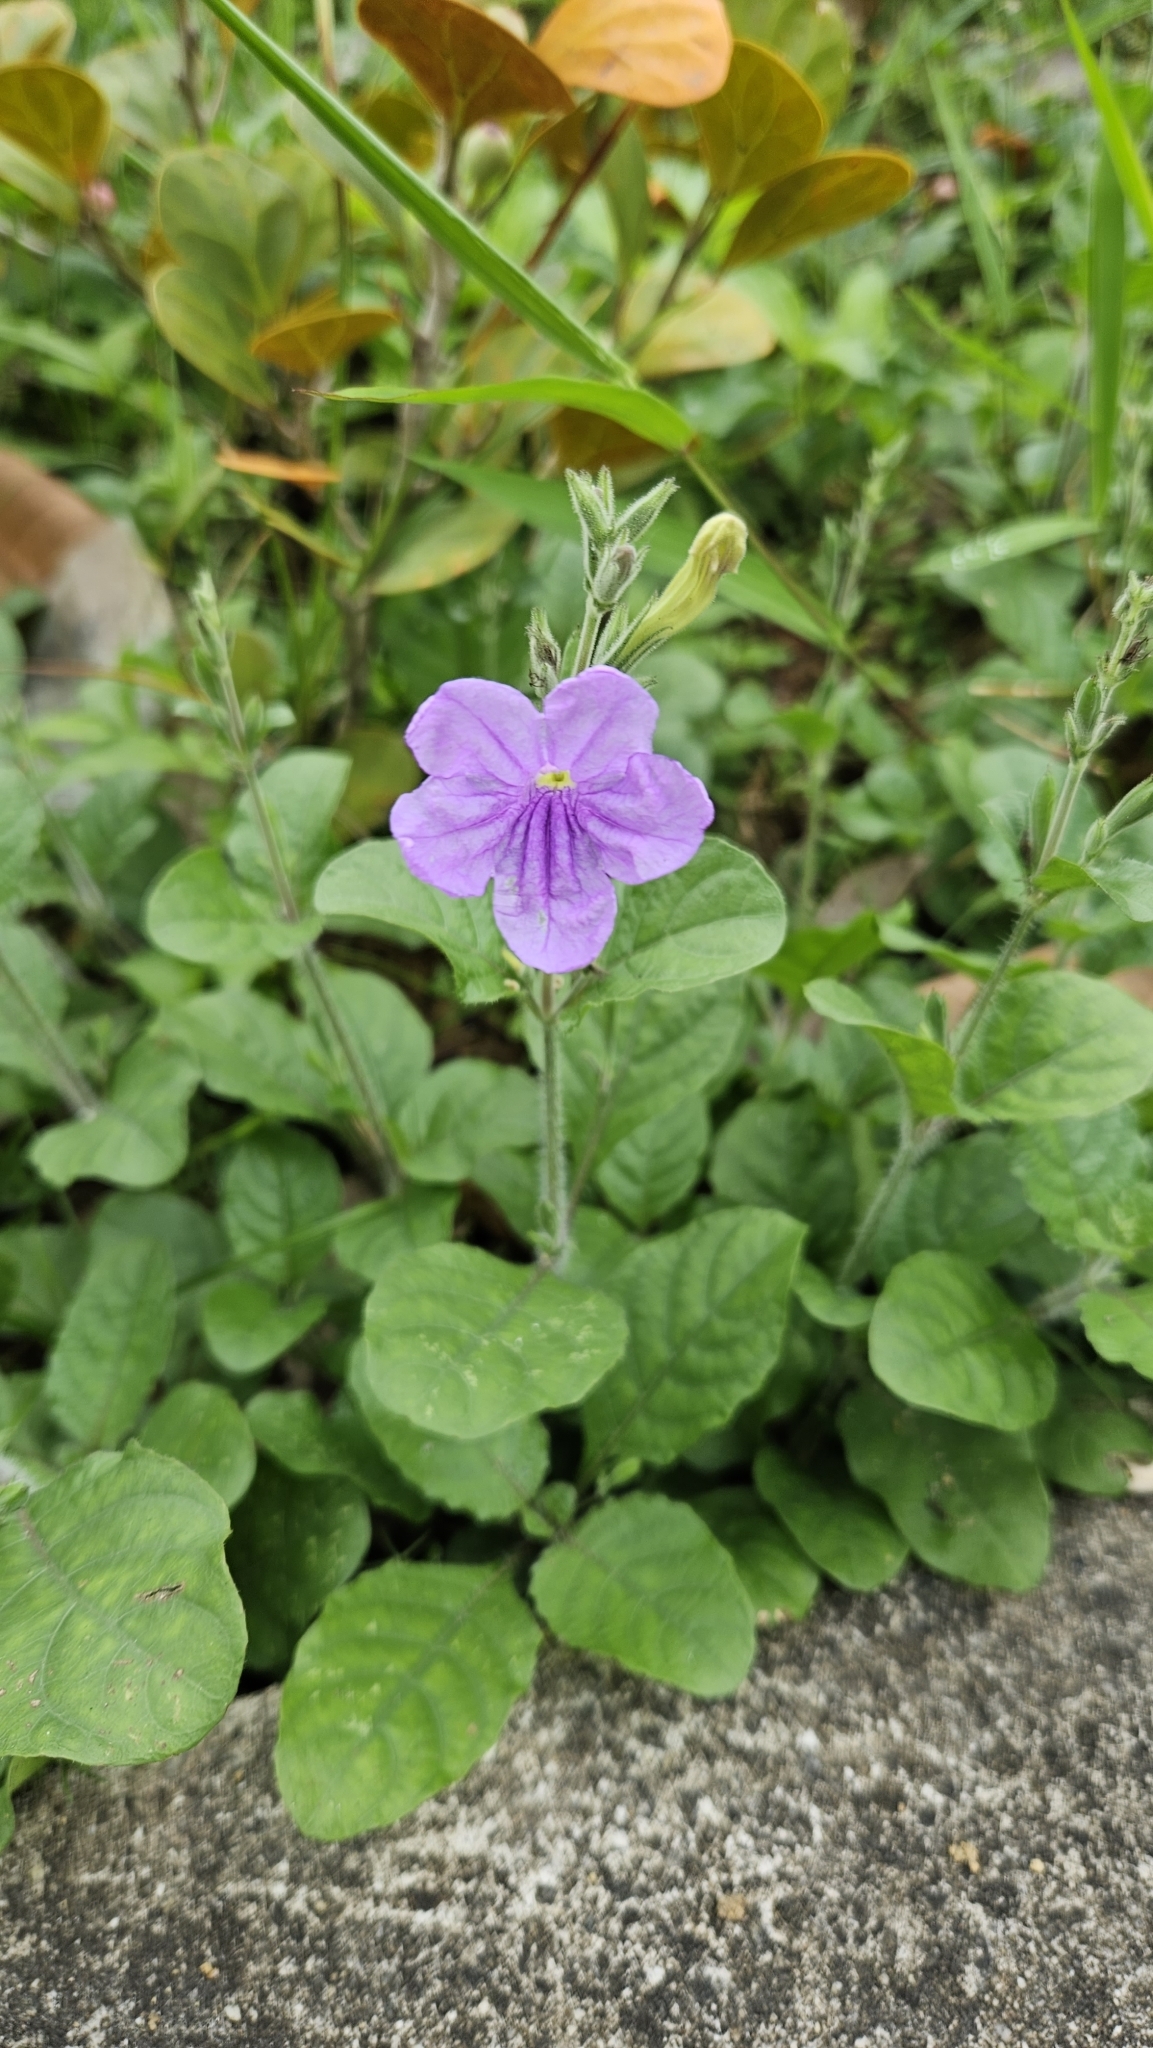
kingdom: Plantae
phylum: Tracheophyta
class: Magnoliopsida
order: Lamiales
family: Acanthaceae
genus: Ruellia
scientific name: Ruellia ciliatiflora
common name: Hairyflower wild petunia
